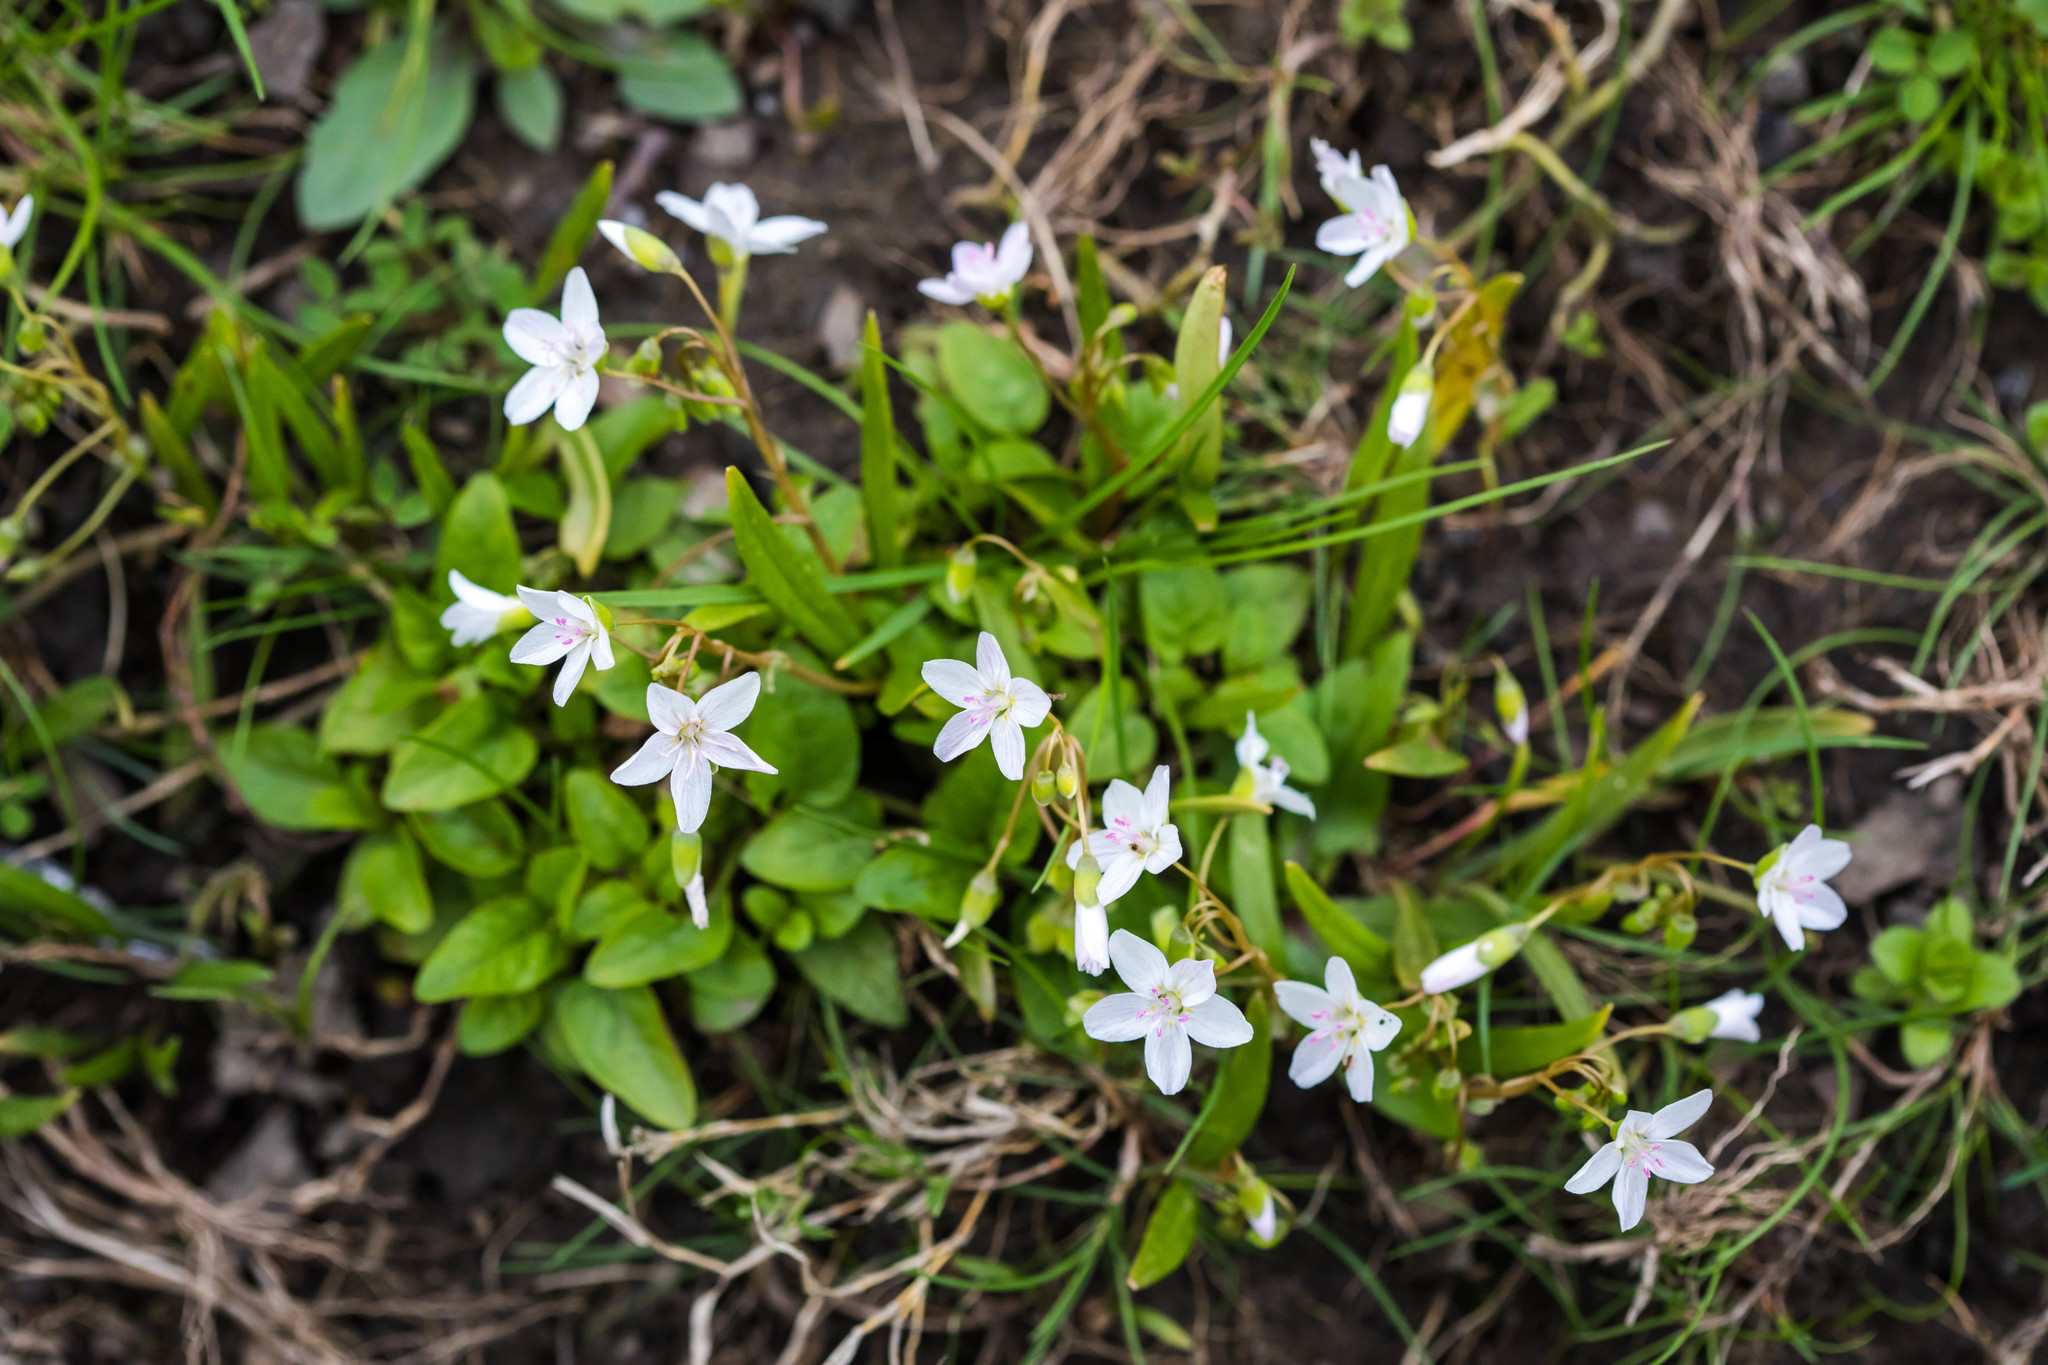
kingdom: Plantae
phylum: Tracheophyta
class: Magnoliopsida
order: Caryophyllales
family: Montiaceae
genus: Claytonia
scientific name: Claytonia virginica
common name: Virginia springbeauty
